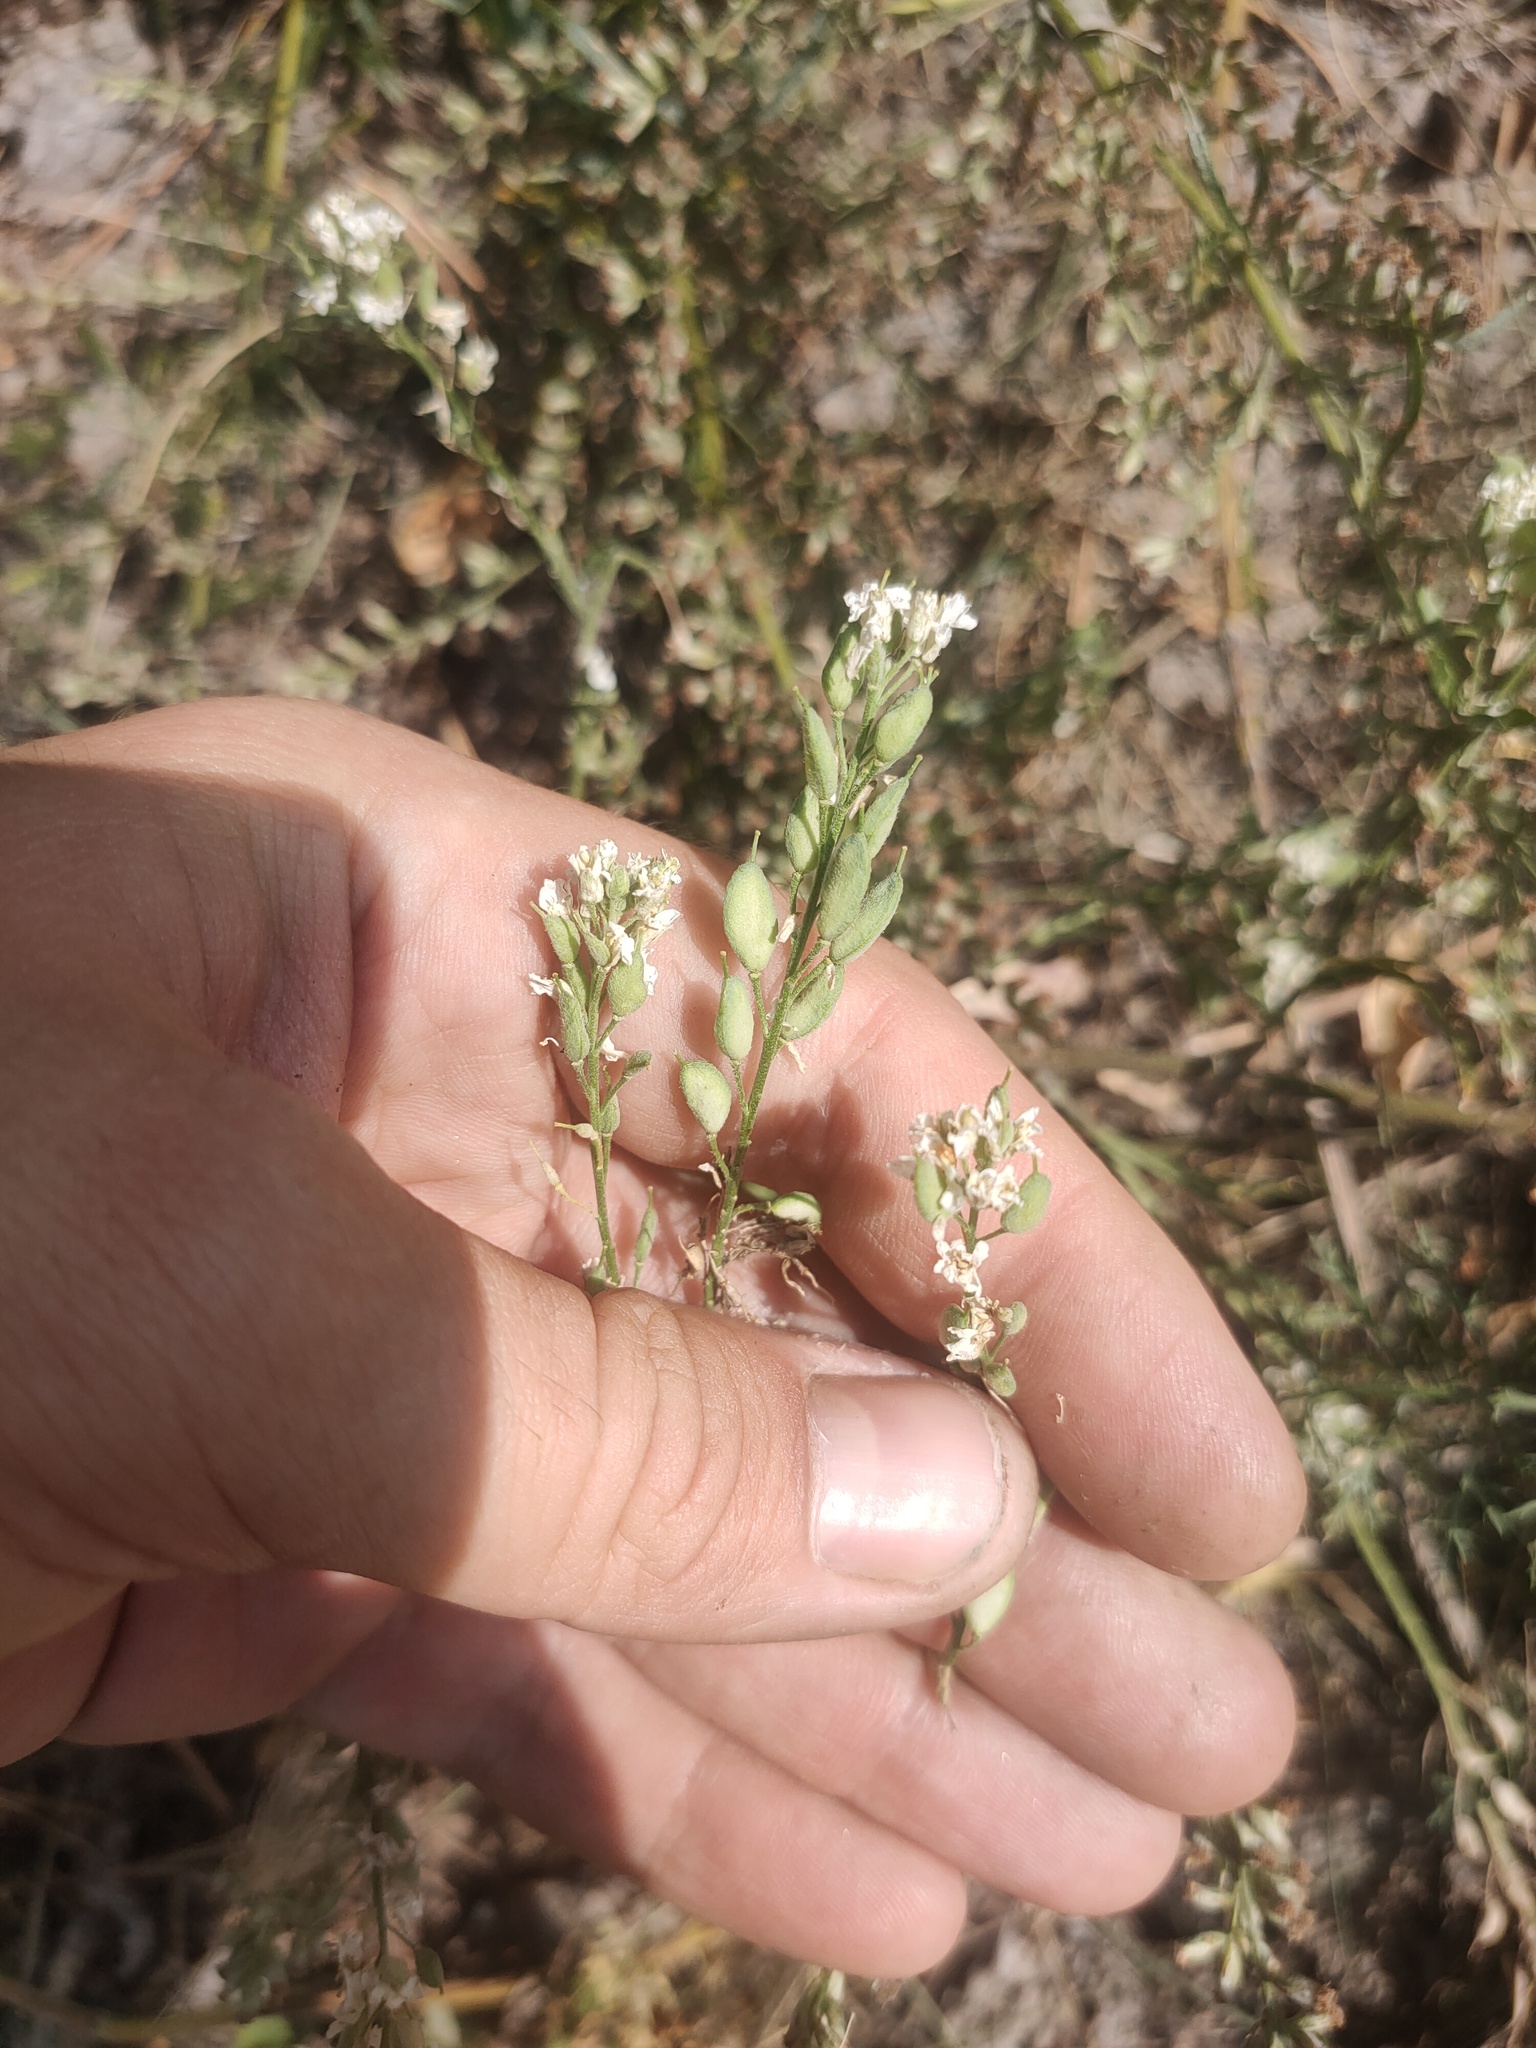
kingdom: Plantae
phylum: Tracheophyta
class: Magnoliopsida
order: Brassicales
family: Brassicaceae
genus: Lepidium
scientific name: Lepidium latifolium
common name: Dittander
